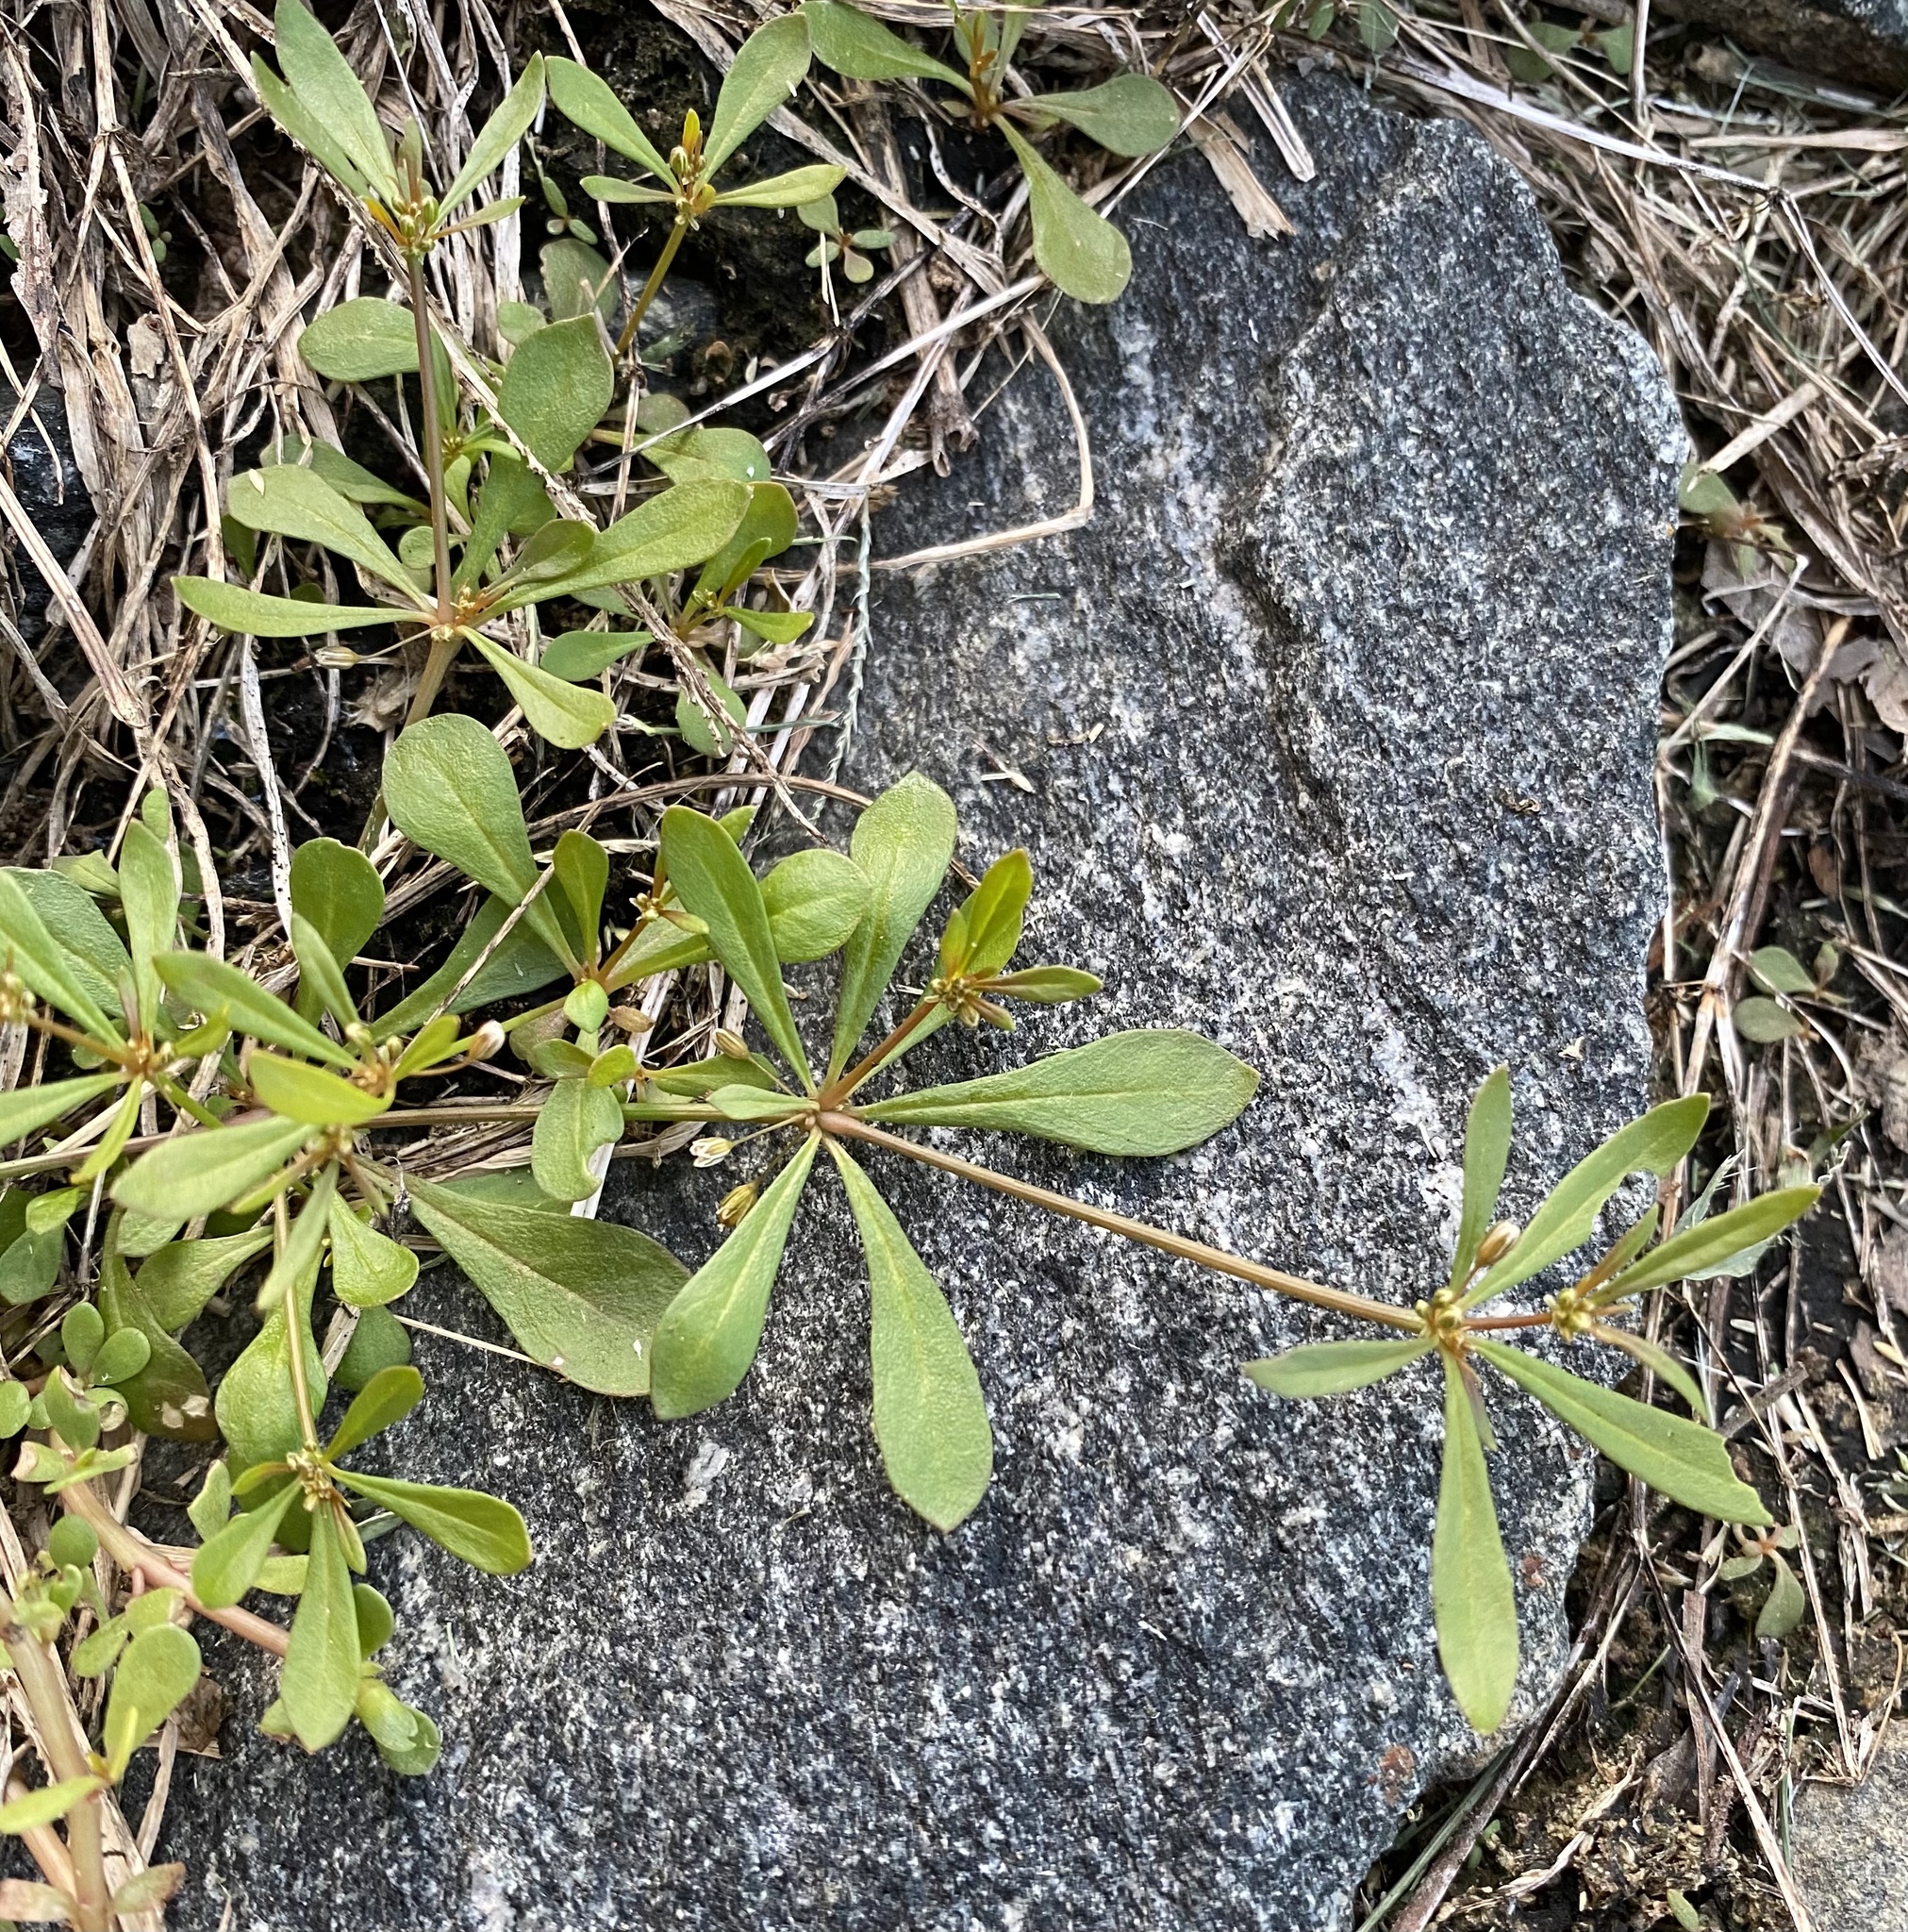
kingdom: Plantae
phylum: Tracheophyta
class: Magnoliopsida
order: Caryophyllales
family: Molluginaceae
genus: Mollugo
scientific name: Mollugo verticillata
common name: Green carpetweed
